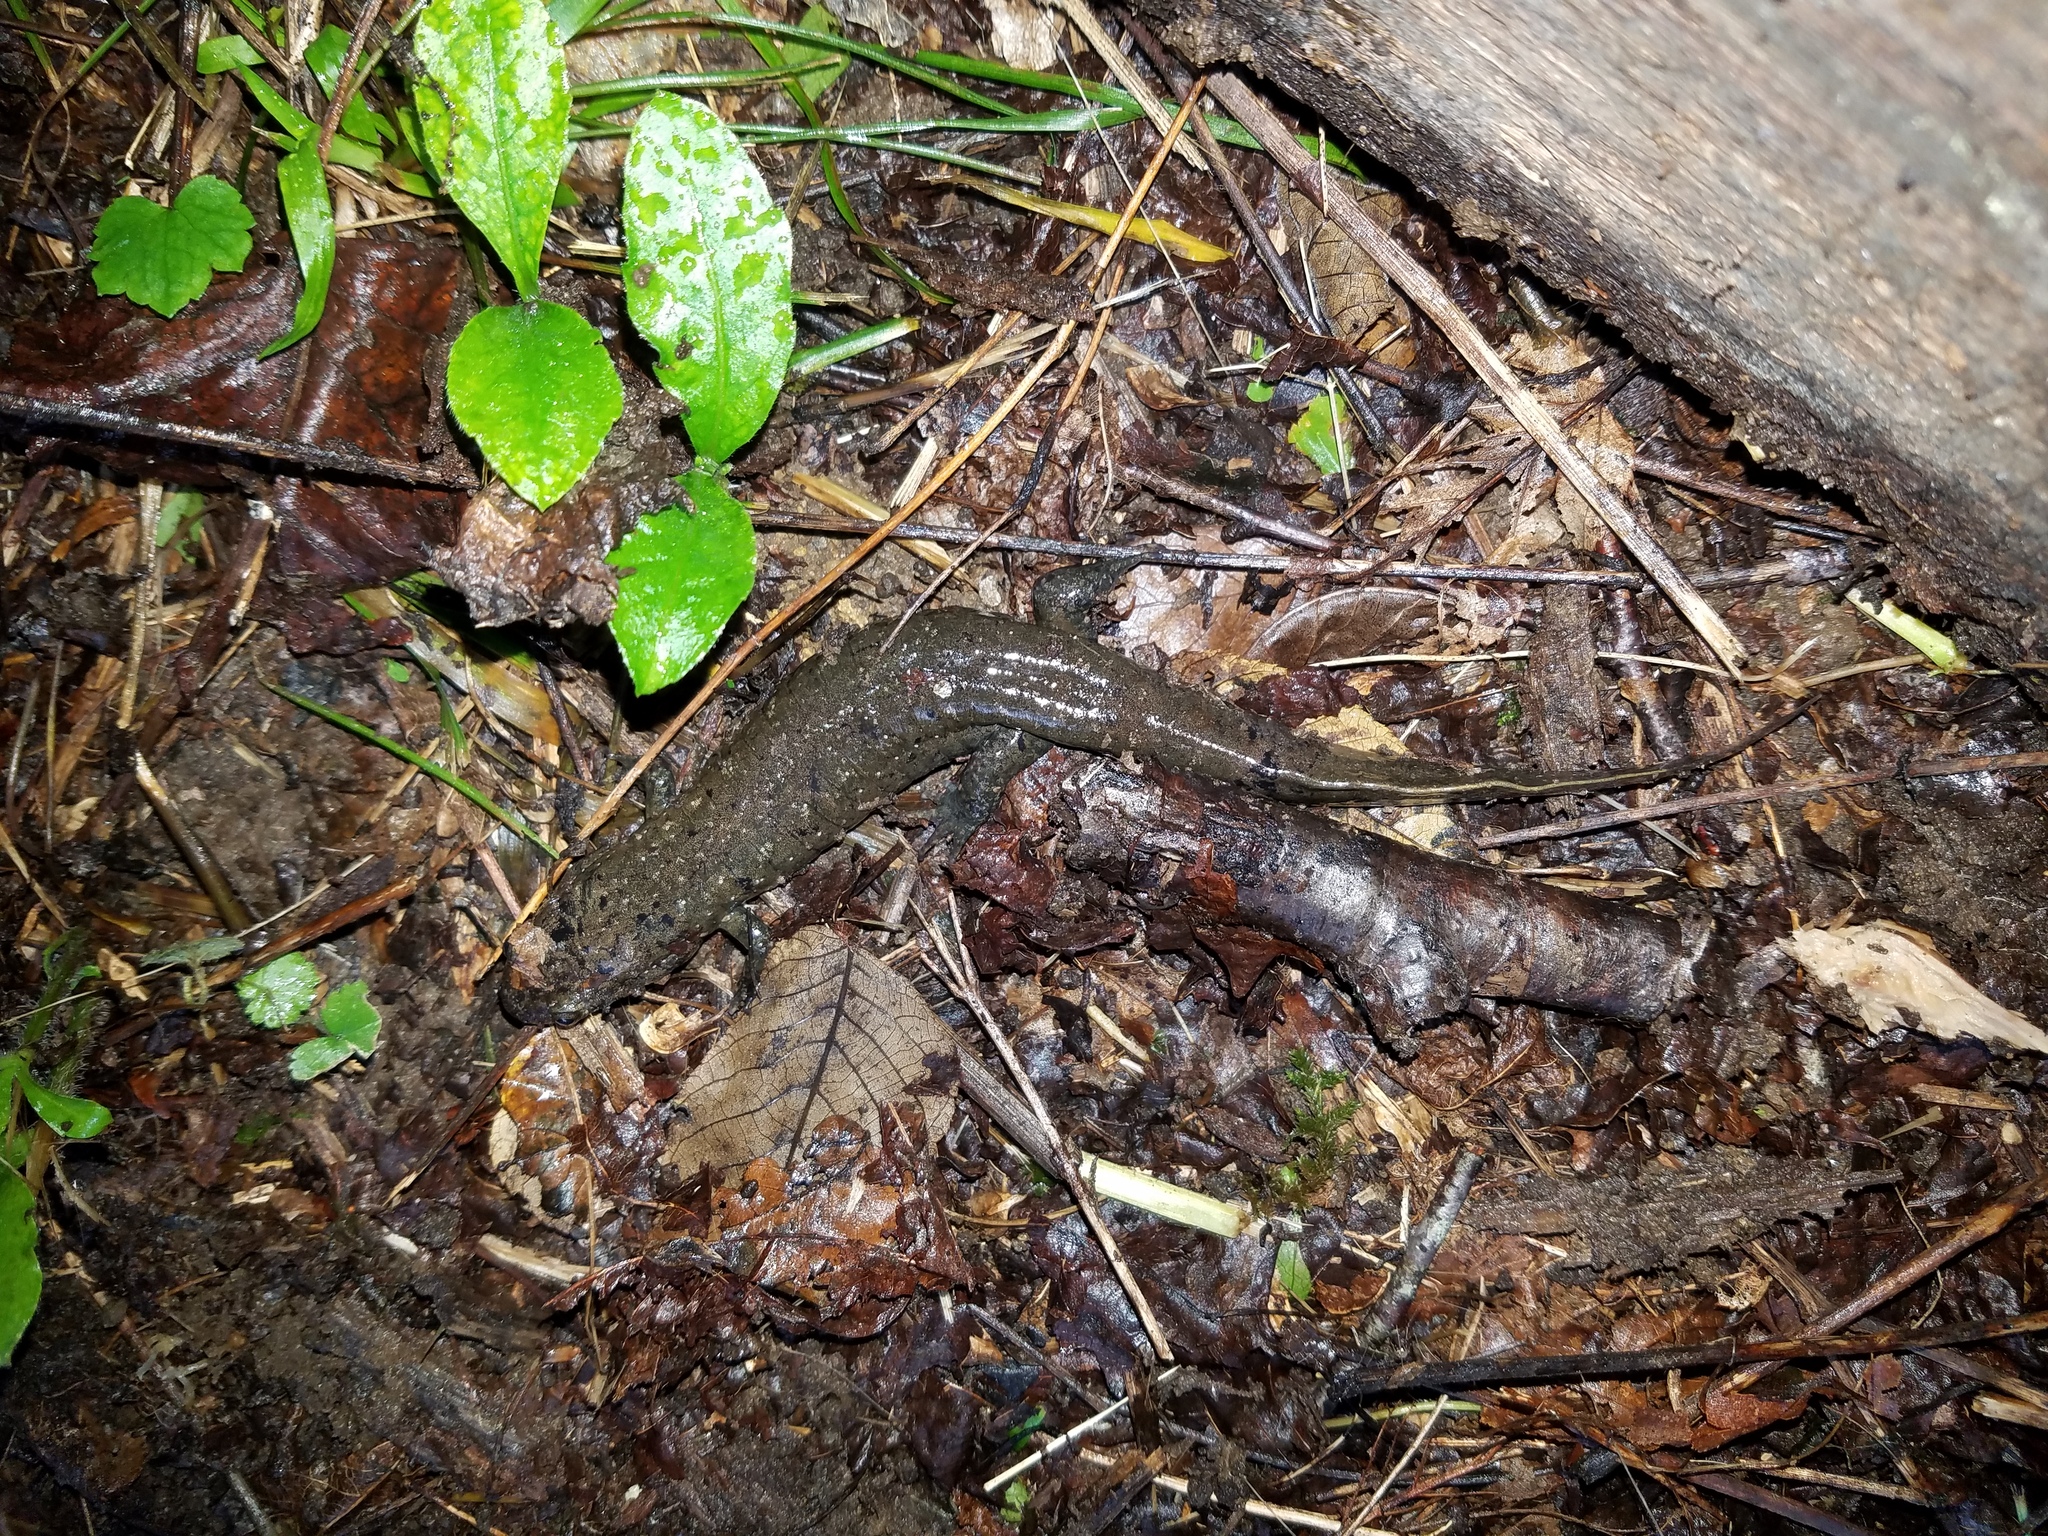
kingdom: Animalia
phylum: Chordata
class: Amphibia
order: Caudata
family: Plethodontidae
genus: Desmognathus
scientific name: Desmognathus
